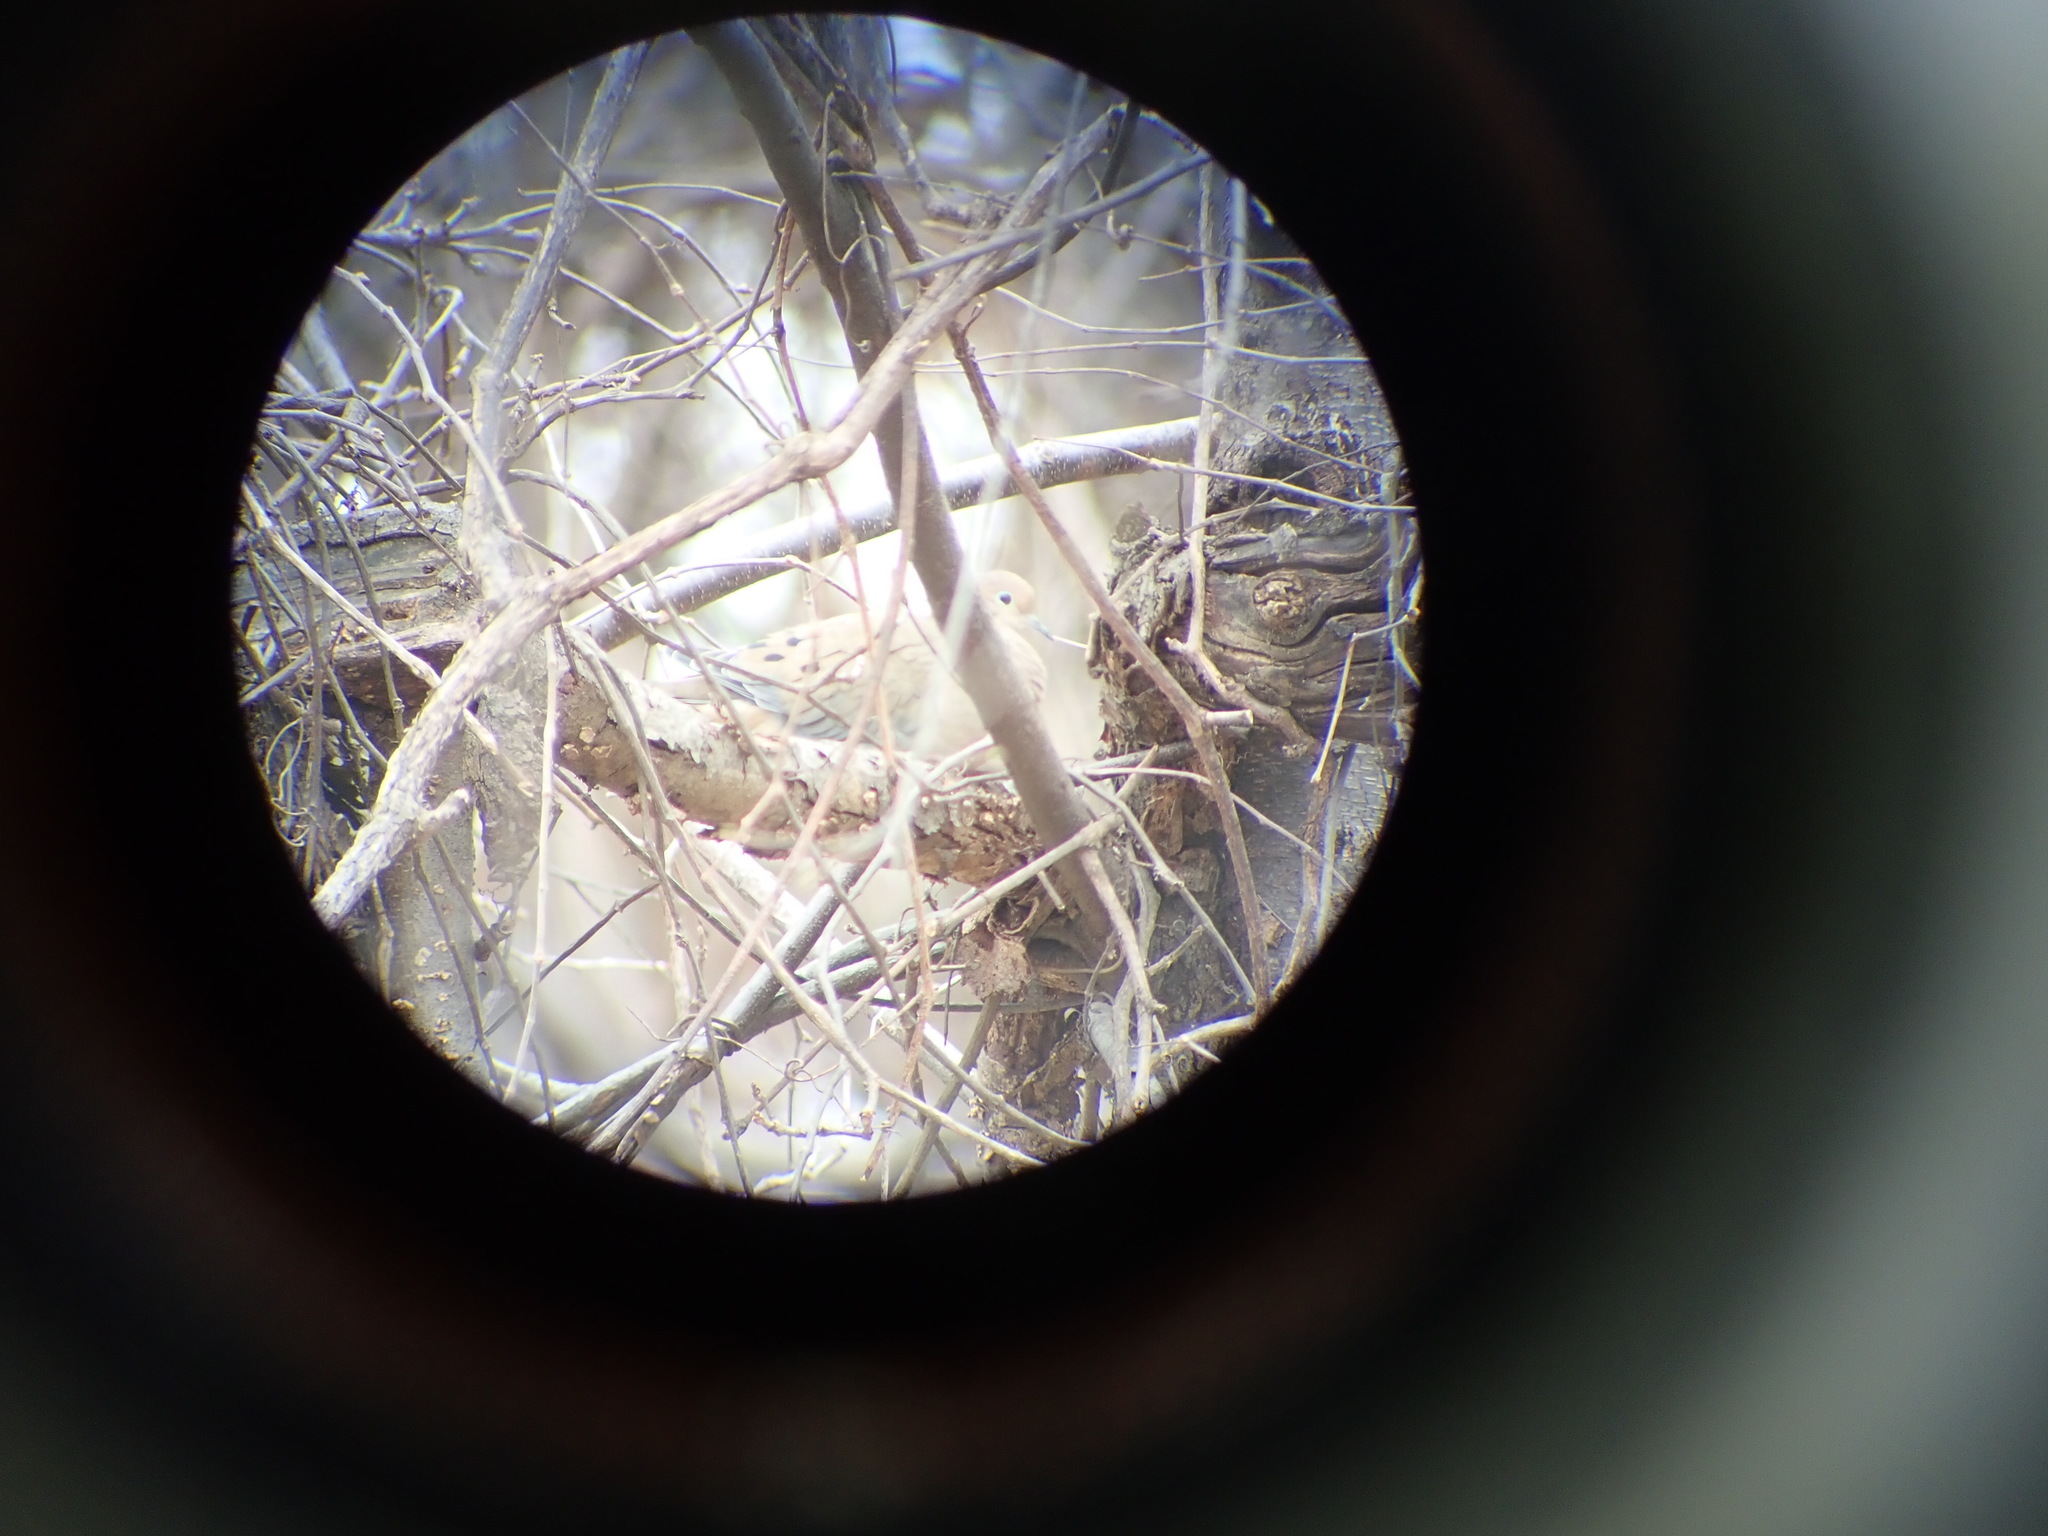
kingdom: Animalia
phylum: Chordata
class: Aves
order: Columbiformes
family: Columbidae
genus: Zenaida
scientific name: Zenaida macroura
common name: Mourning dove
